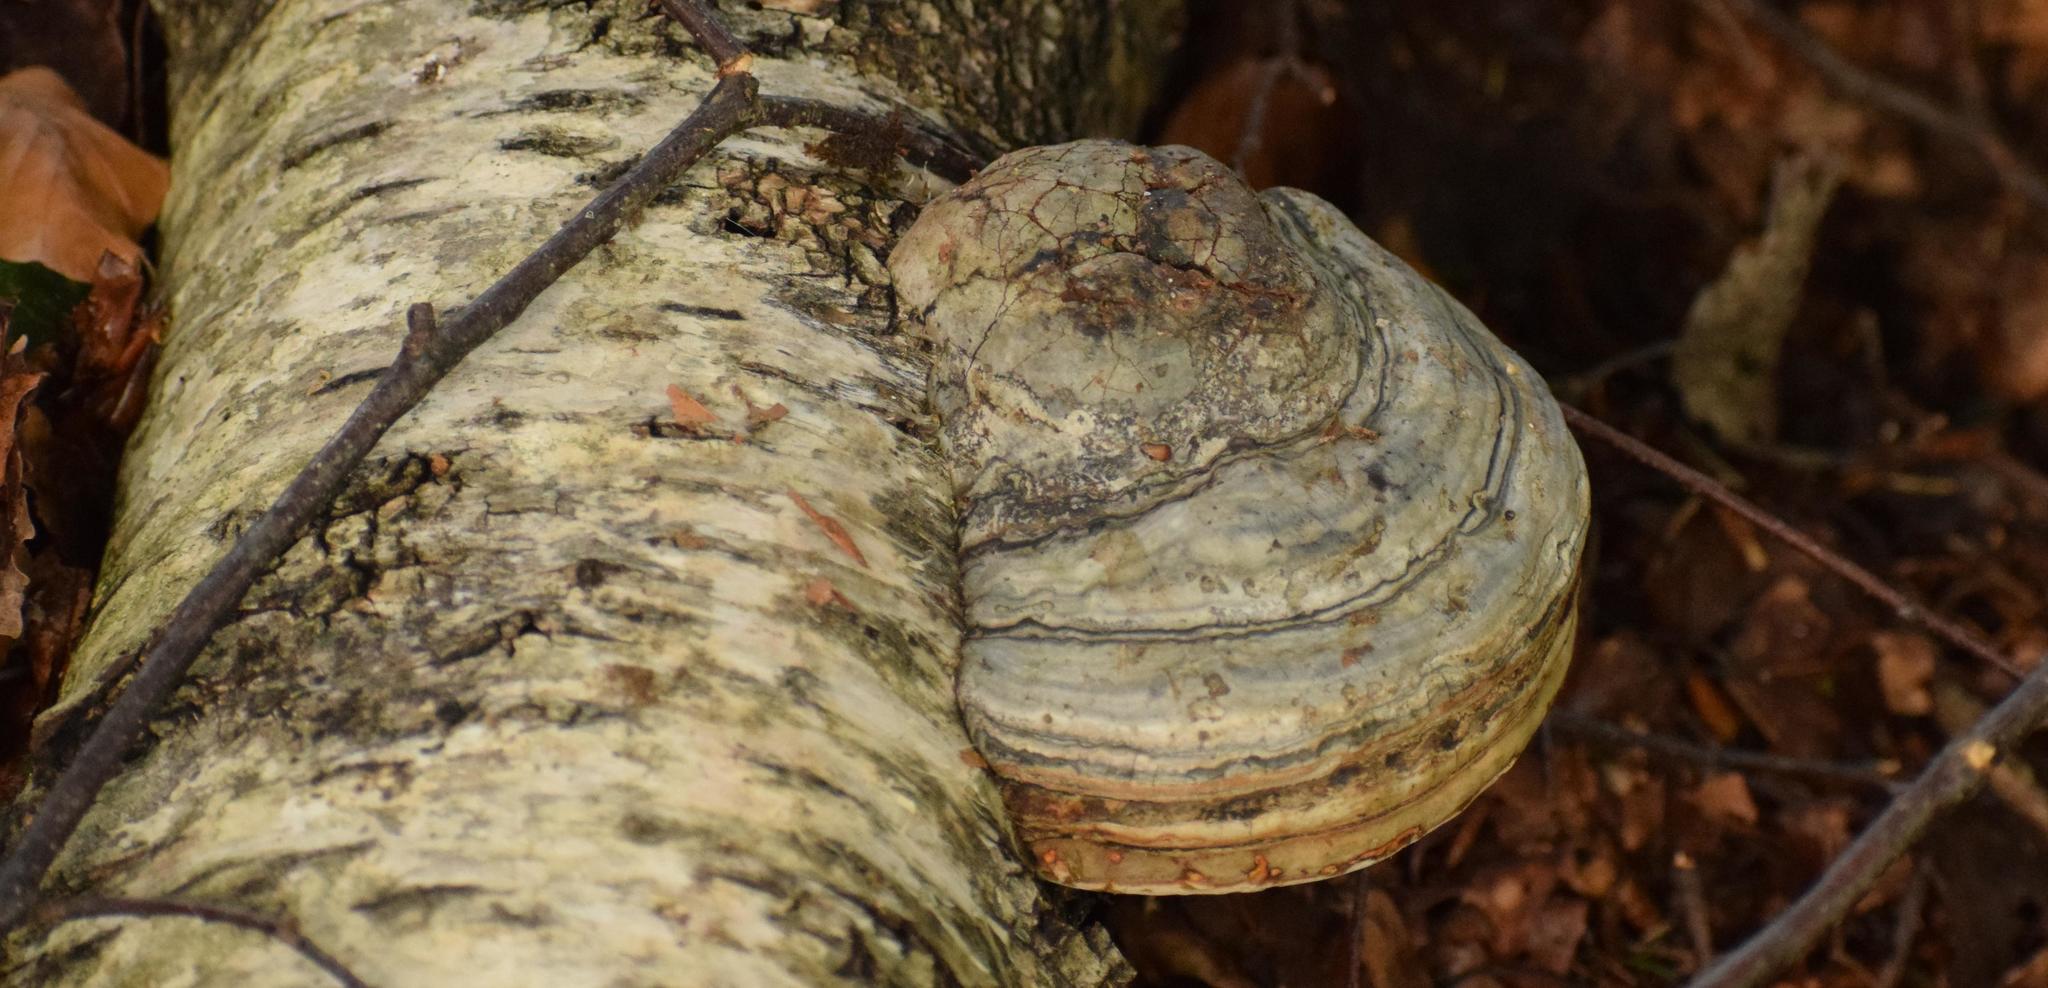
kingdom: Fungi
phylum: Basidiomycota
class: Agaricomycetes
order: Polyporales
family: Polyporaceae
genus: Fomes
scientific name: Fomes fomentarius
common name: Hoof fungus
